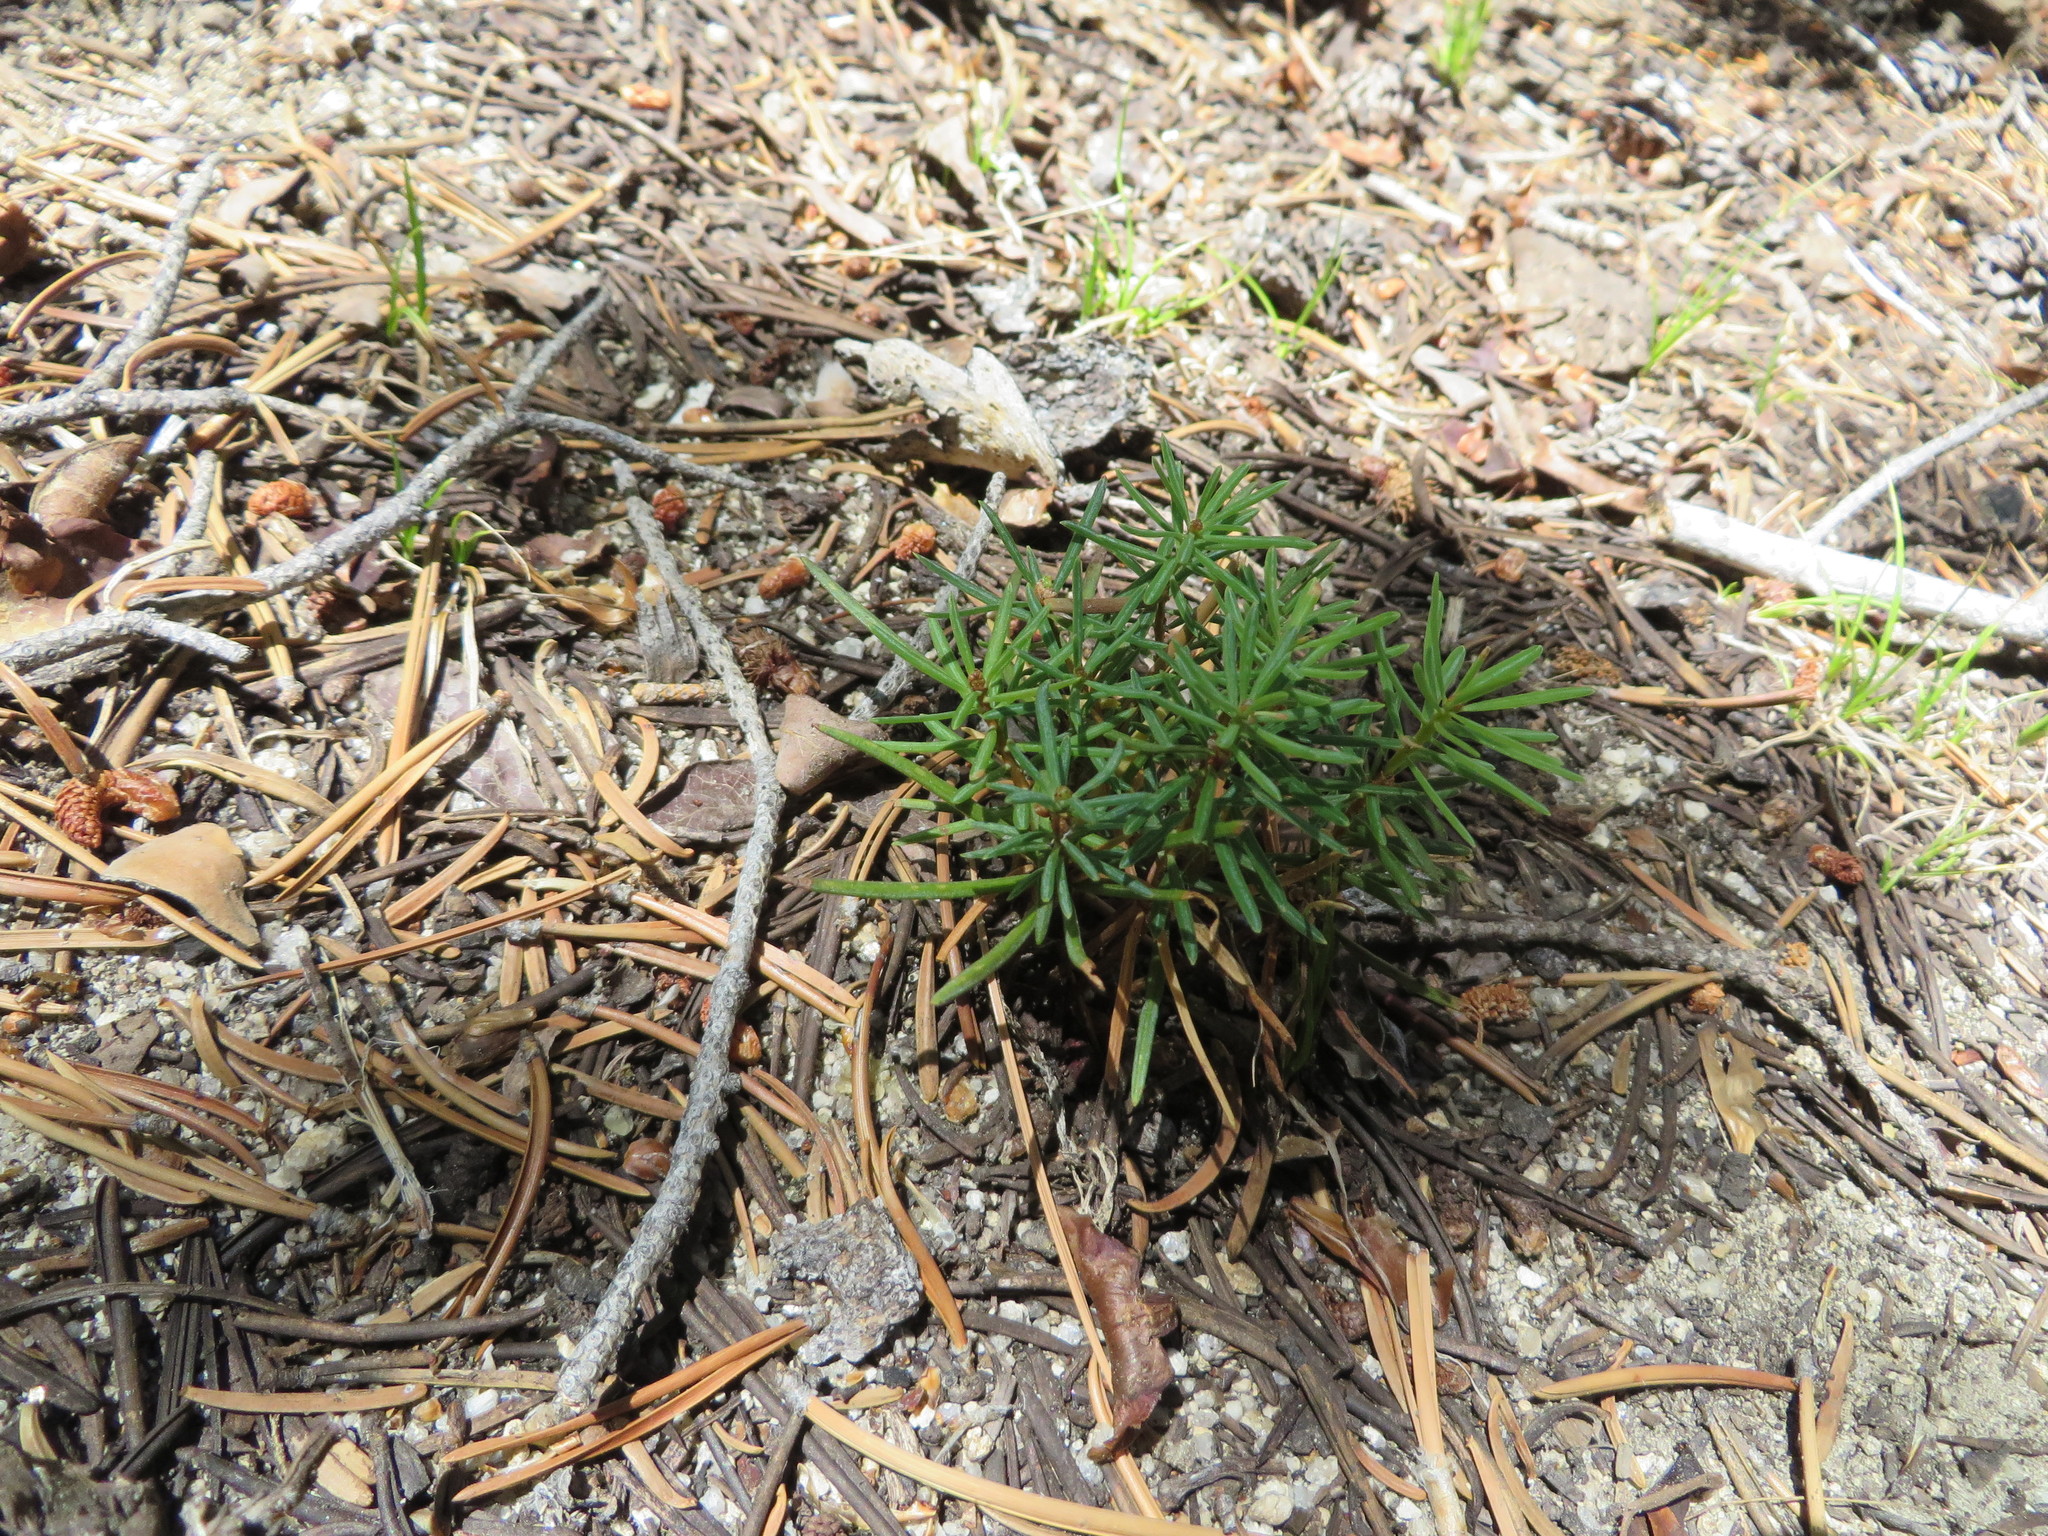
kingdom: Plantae
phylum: Tracheophyta
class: Pinopsida
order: Pinales
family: Pinaceae
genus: Abies
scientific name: Abies concolor
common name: Colorado fir
